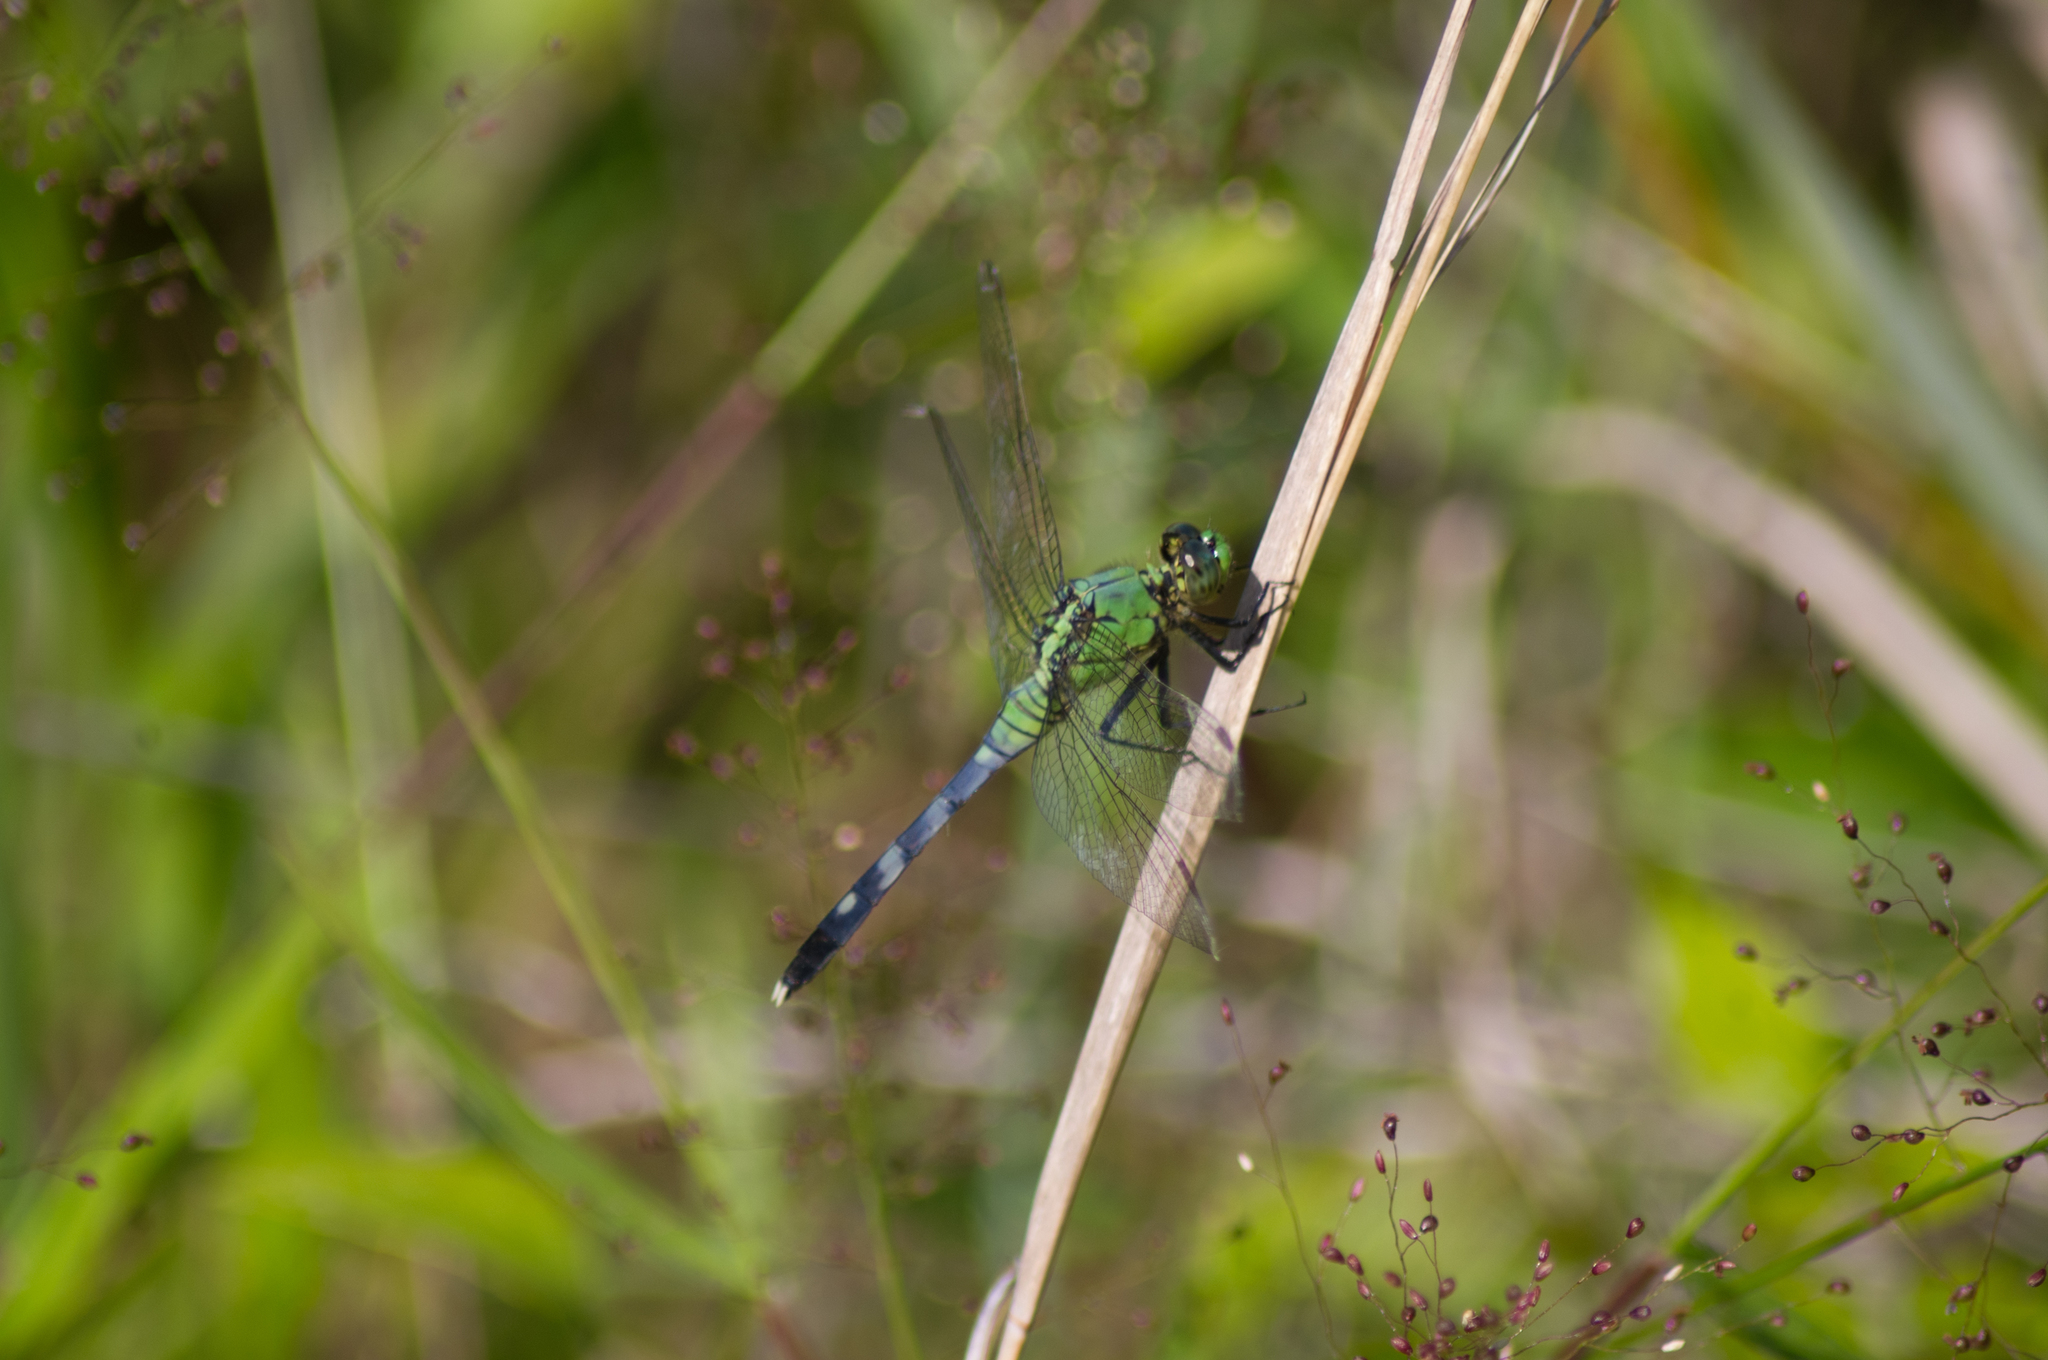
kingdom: Animalia
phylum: Arthropoda
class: Insecta
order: Odonata
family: Libellulidae
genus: Erythemis
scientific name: Erythemis simplicicollis
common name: Eastern pondhawk
